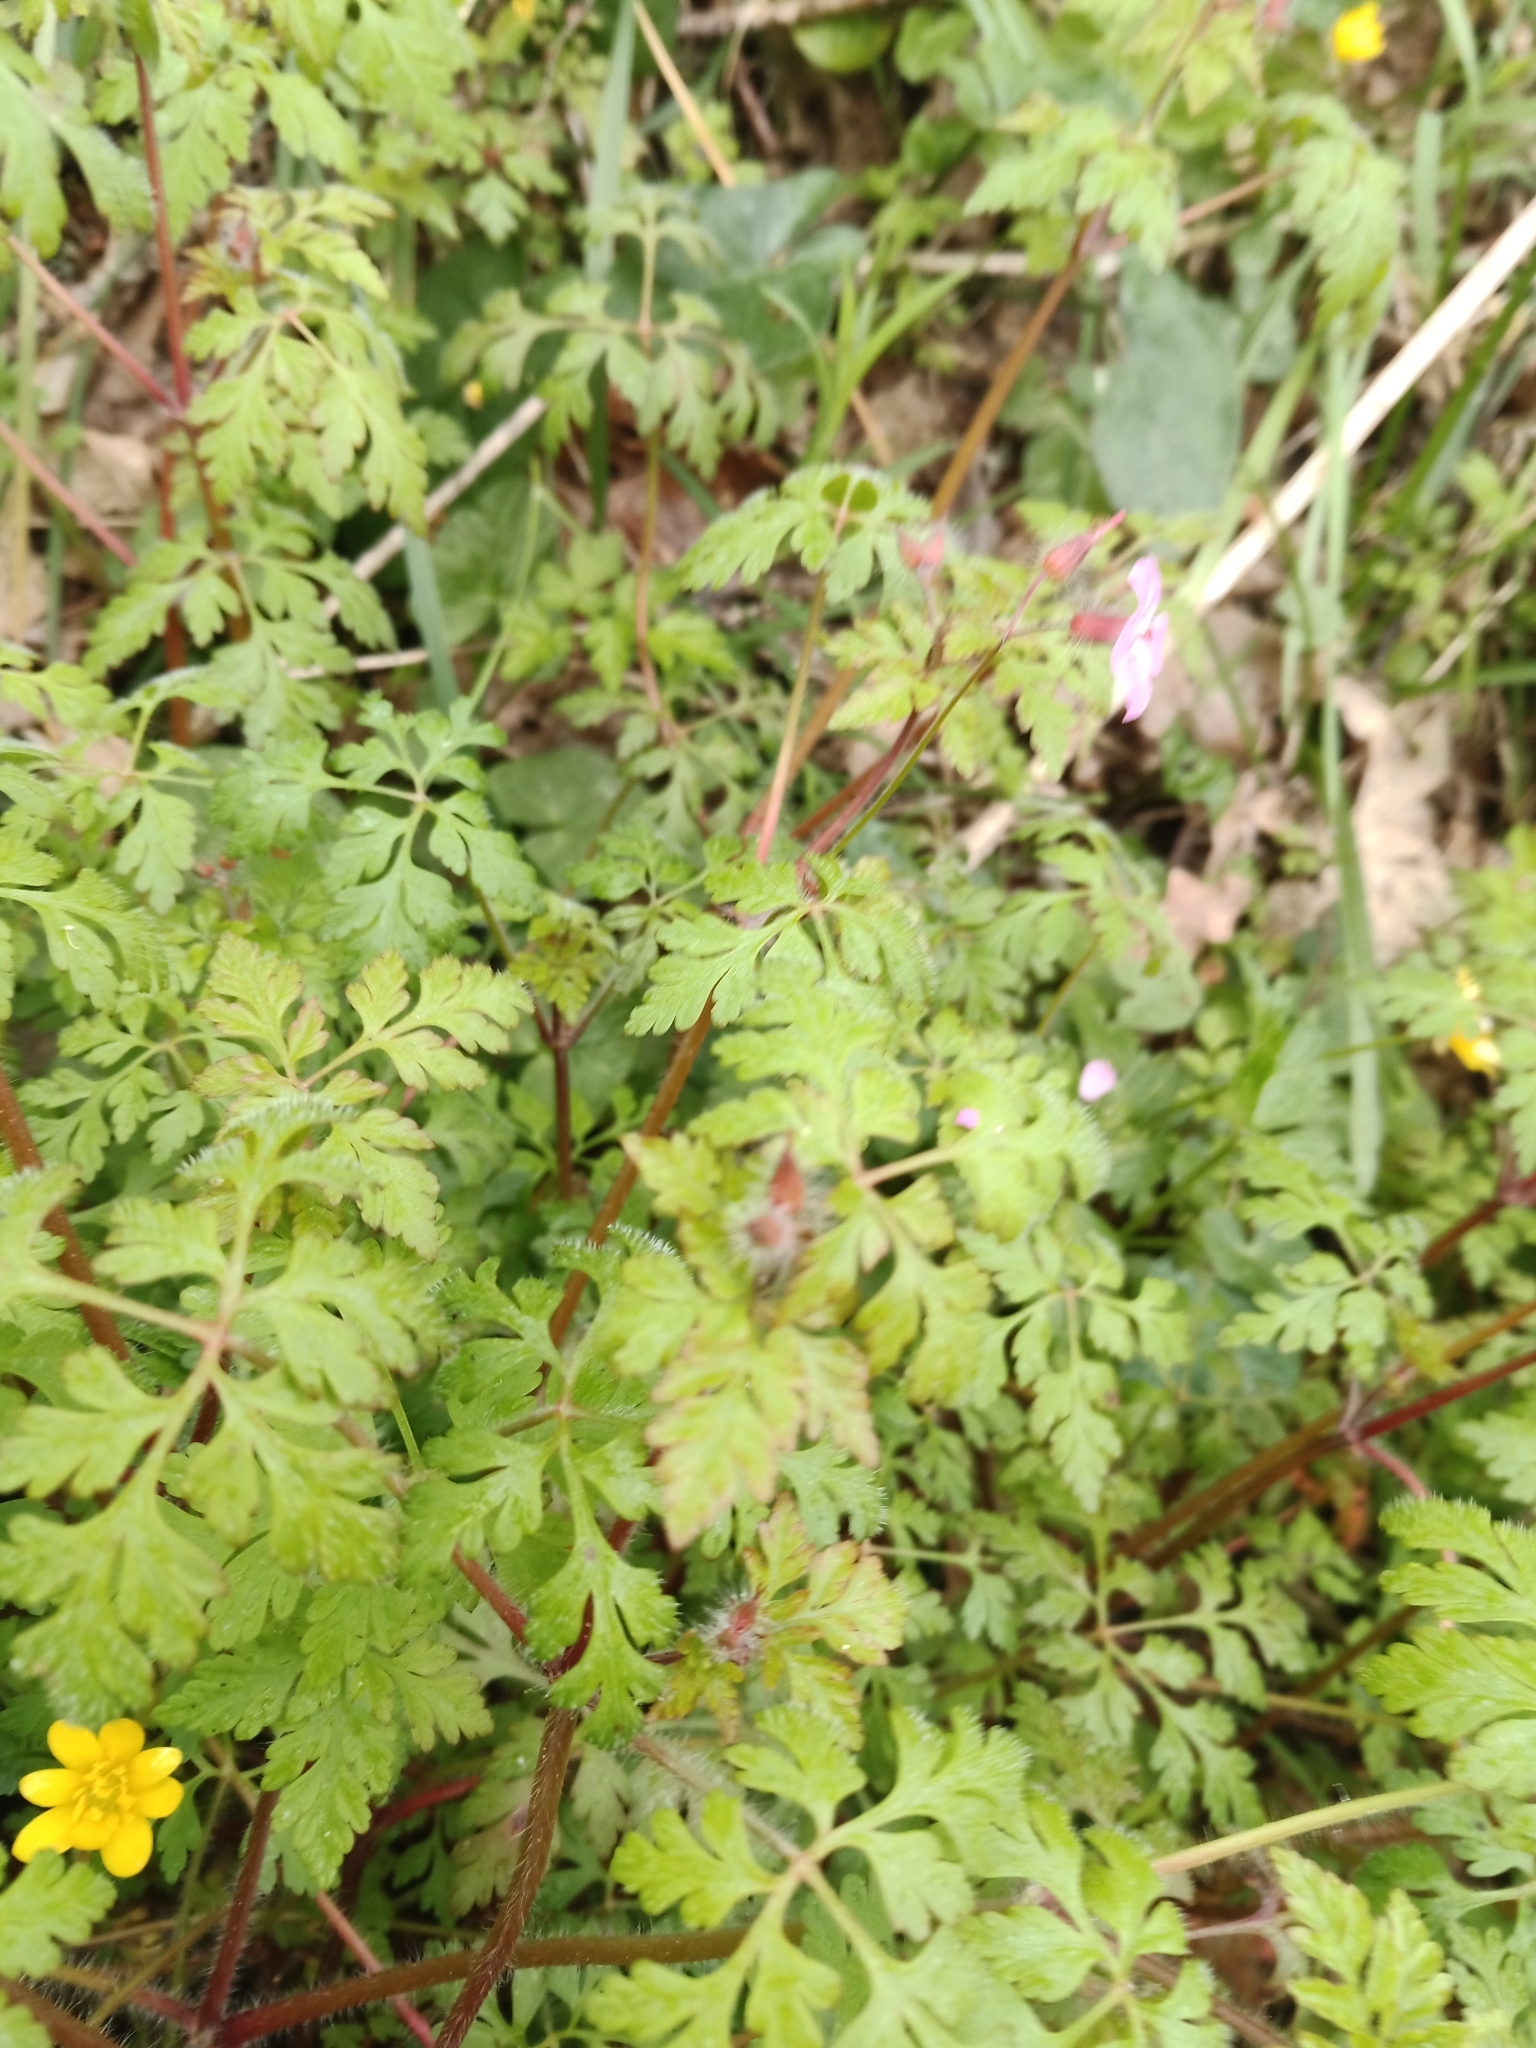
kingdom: Plantae
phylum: Tracheophyta
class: Magnoliopsida
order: Geraniales
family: Geraniaceae
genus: Geranium
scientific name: Geranium robertianum
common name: Herb-robert
